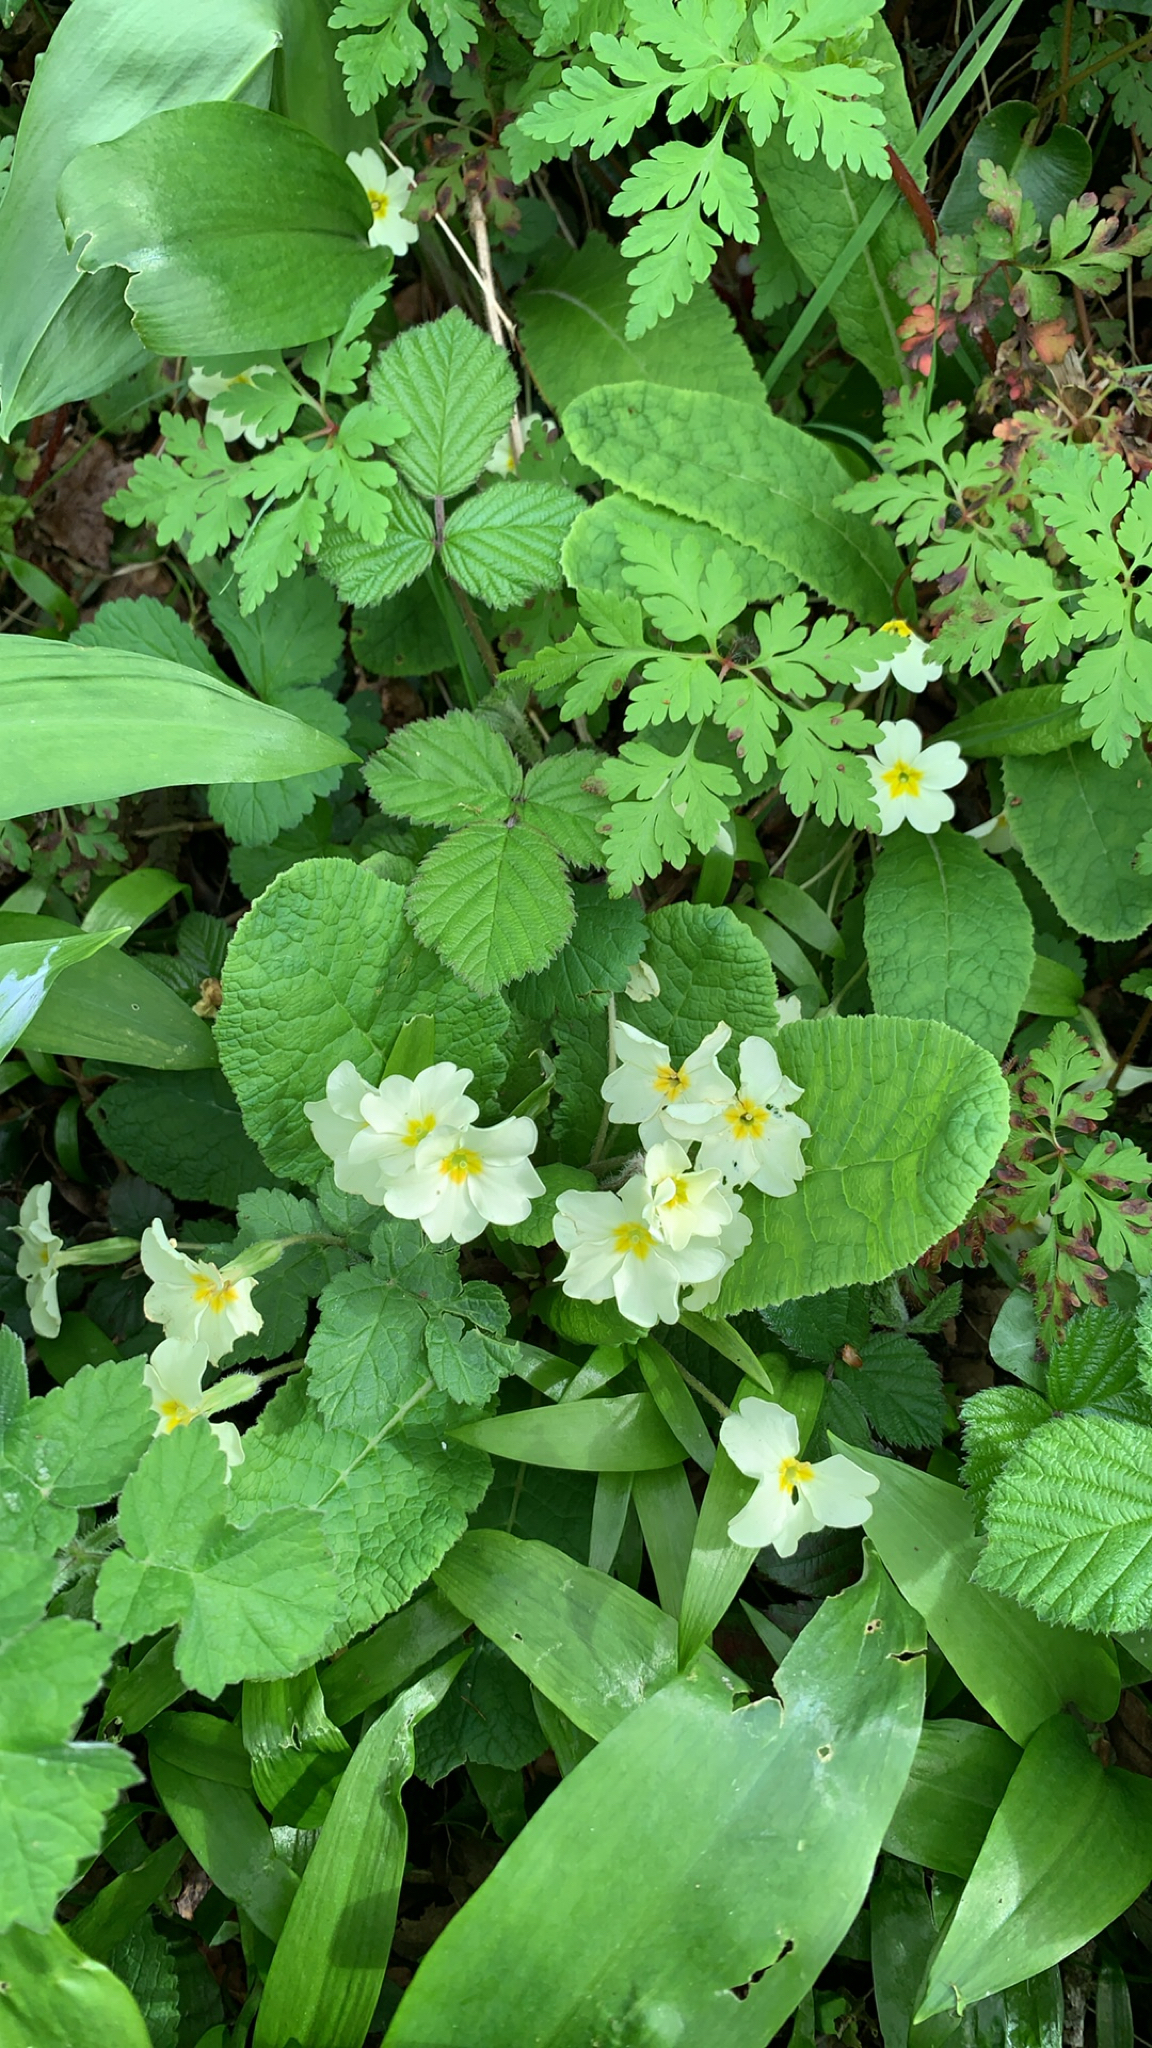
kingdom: Plantae
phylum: Tracheophyta
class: Magnoliopsida
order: Ericales
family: Primulaceae
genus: Primula
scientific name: Primula vulgaris
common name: Primrose
